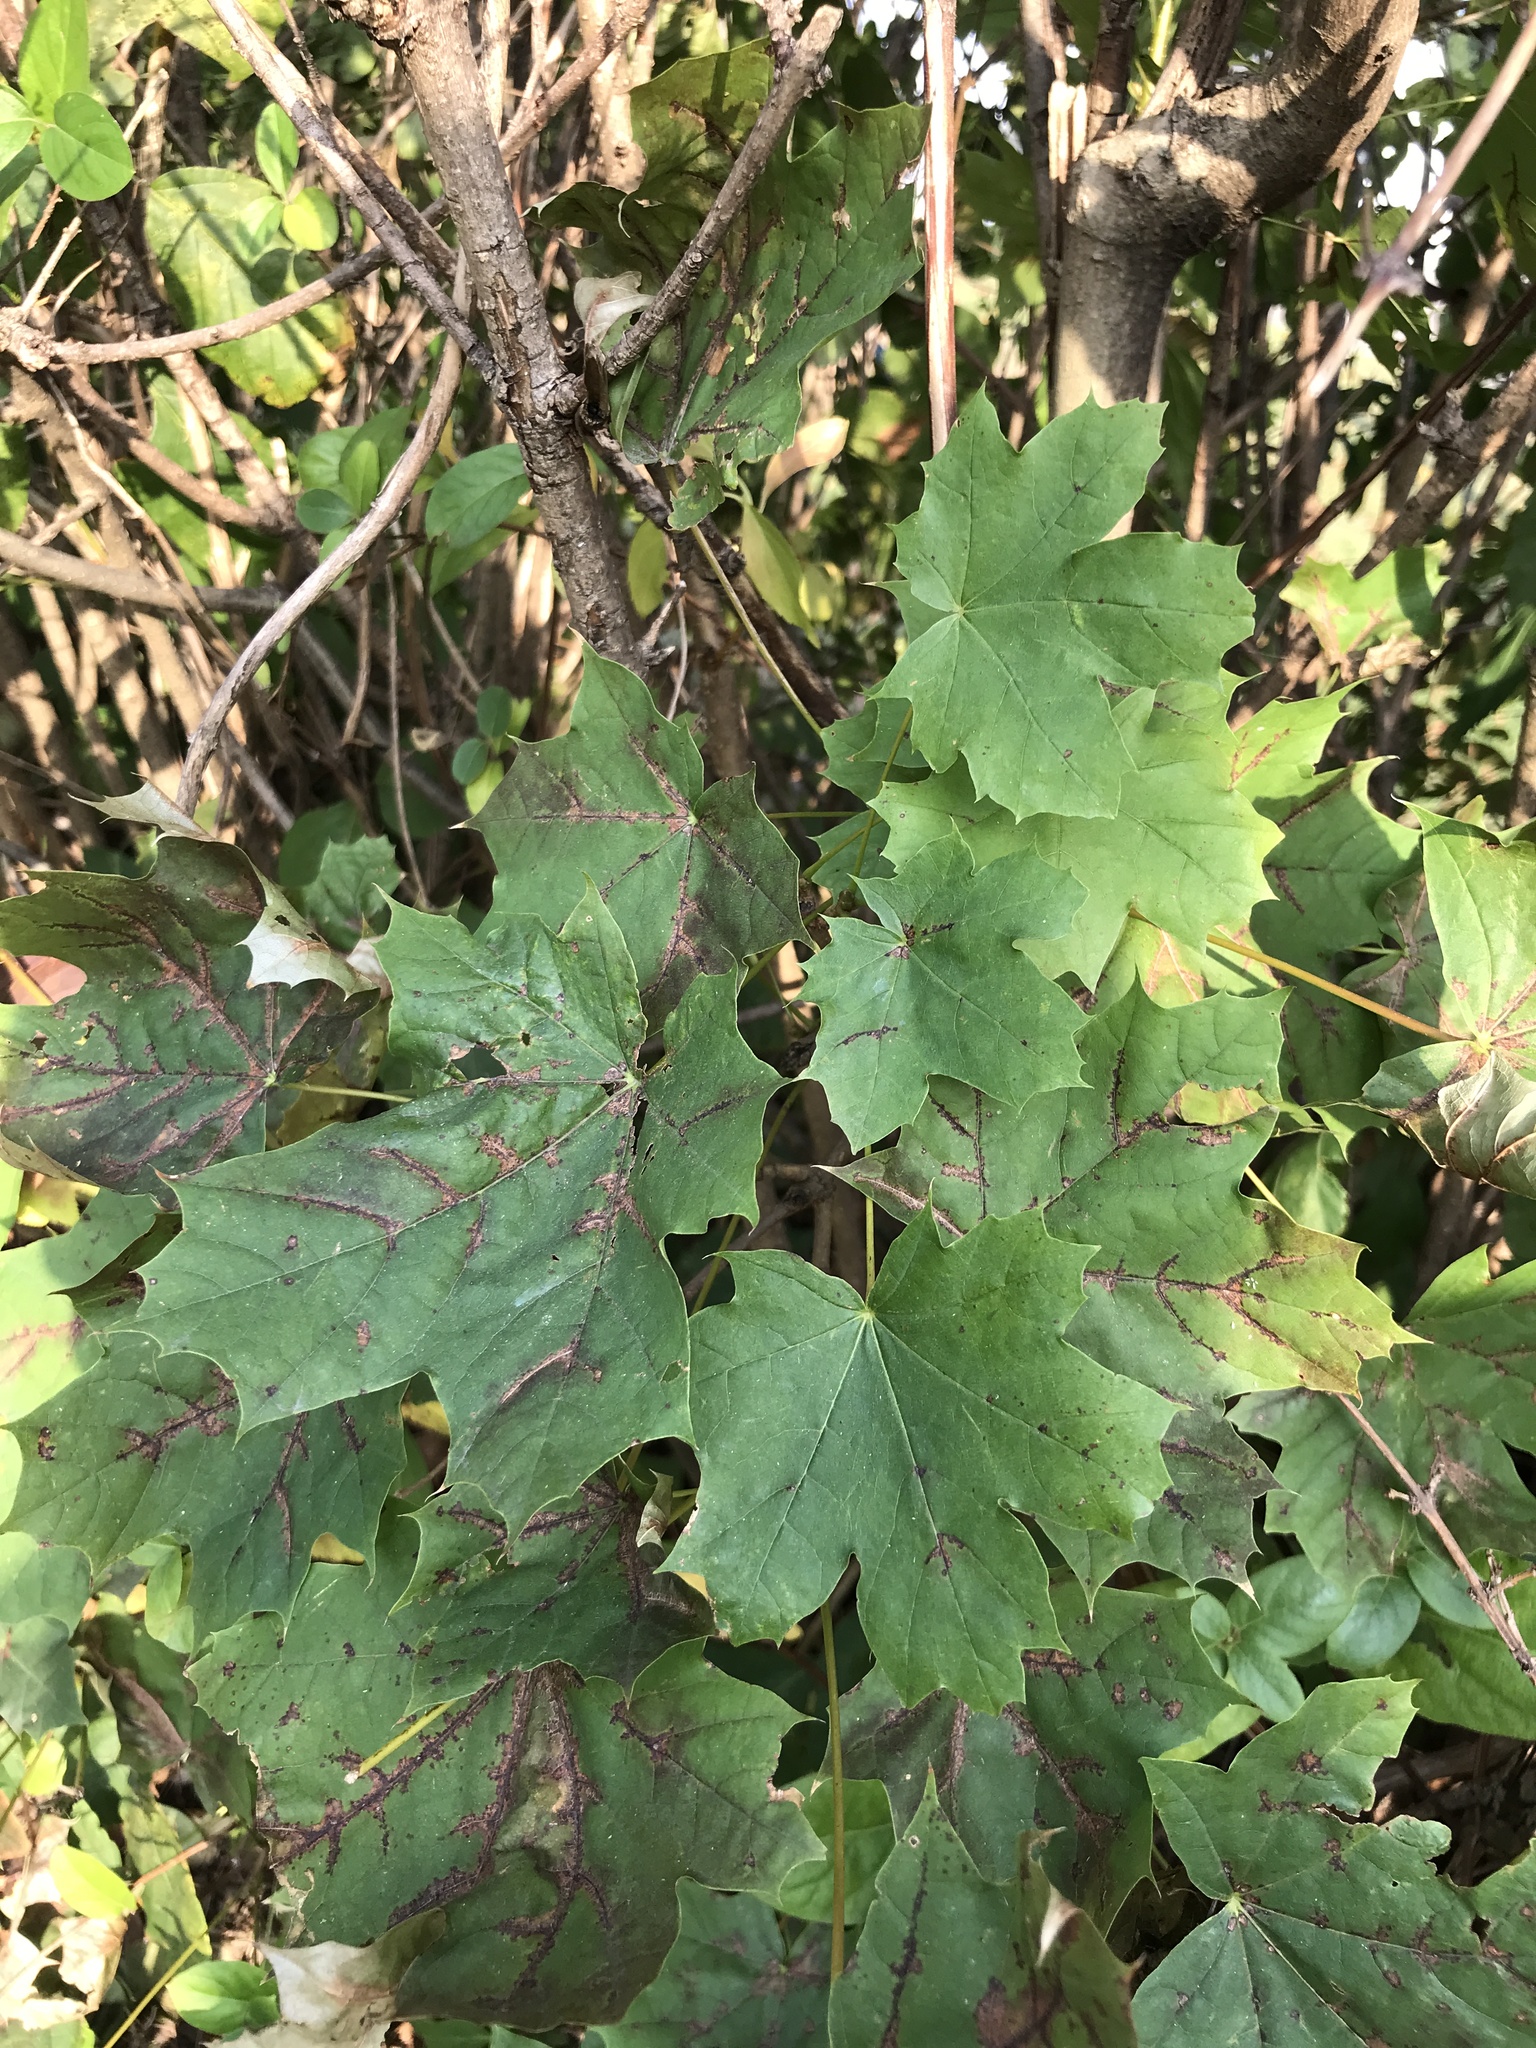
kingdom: Plantae
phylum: Tracheophyta
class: Magnoliopsida
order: Sapindales
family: Sapindaceae
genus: Acer
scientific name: Acer platanoides
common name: Norway maple
